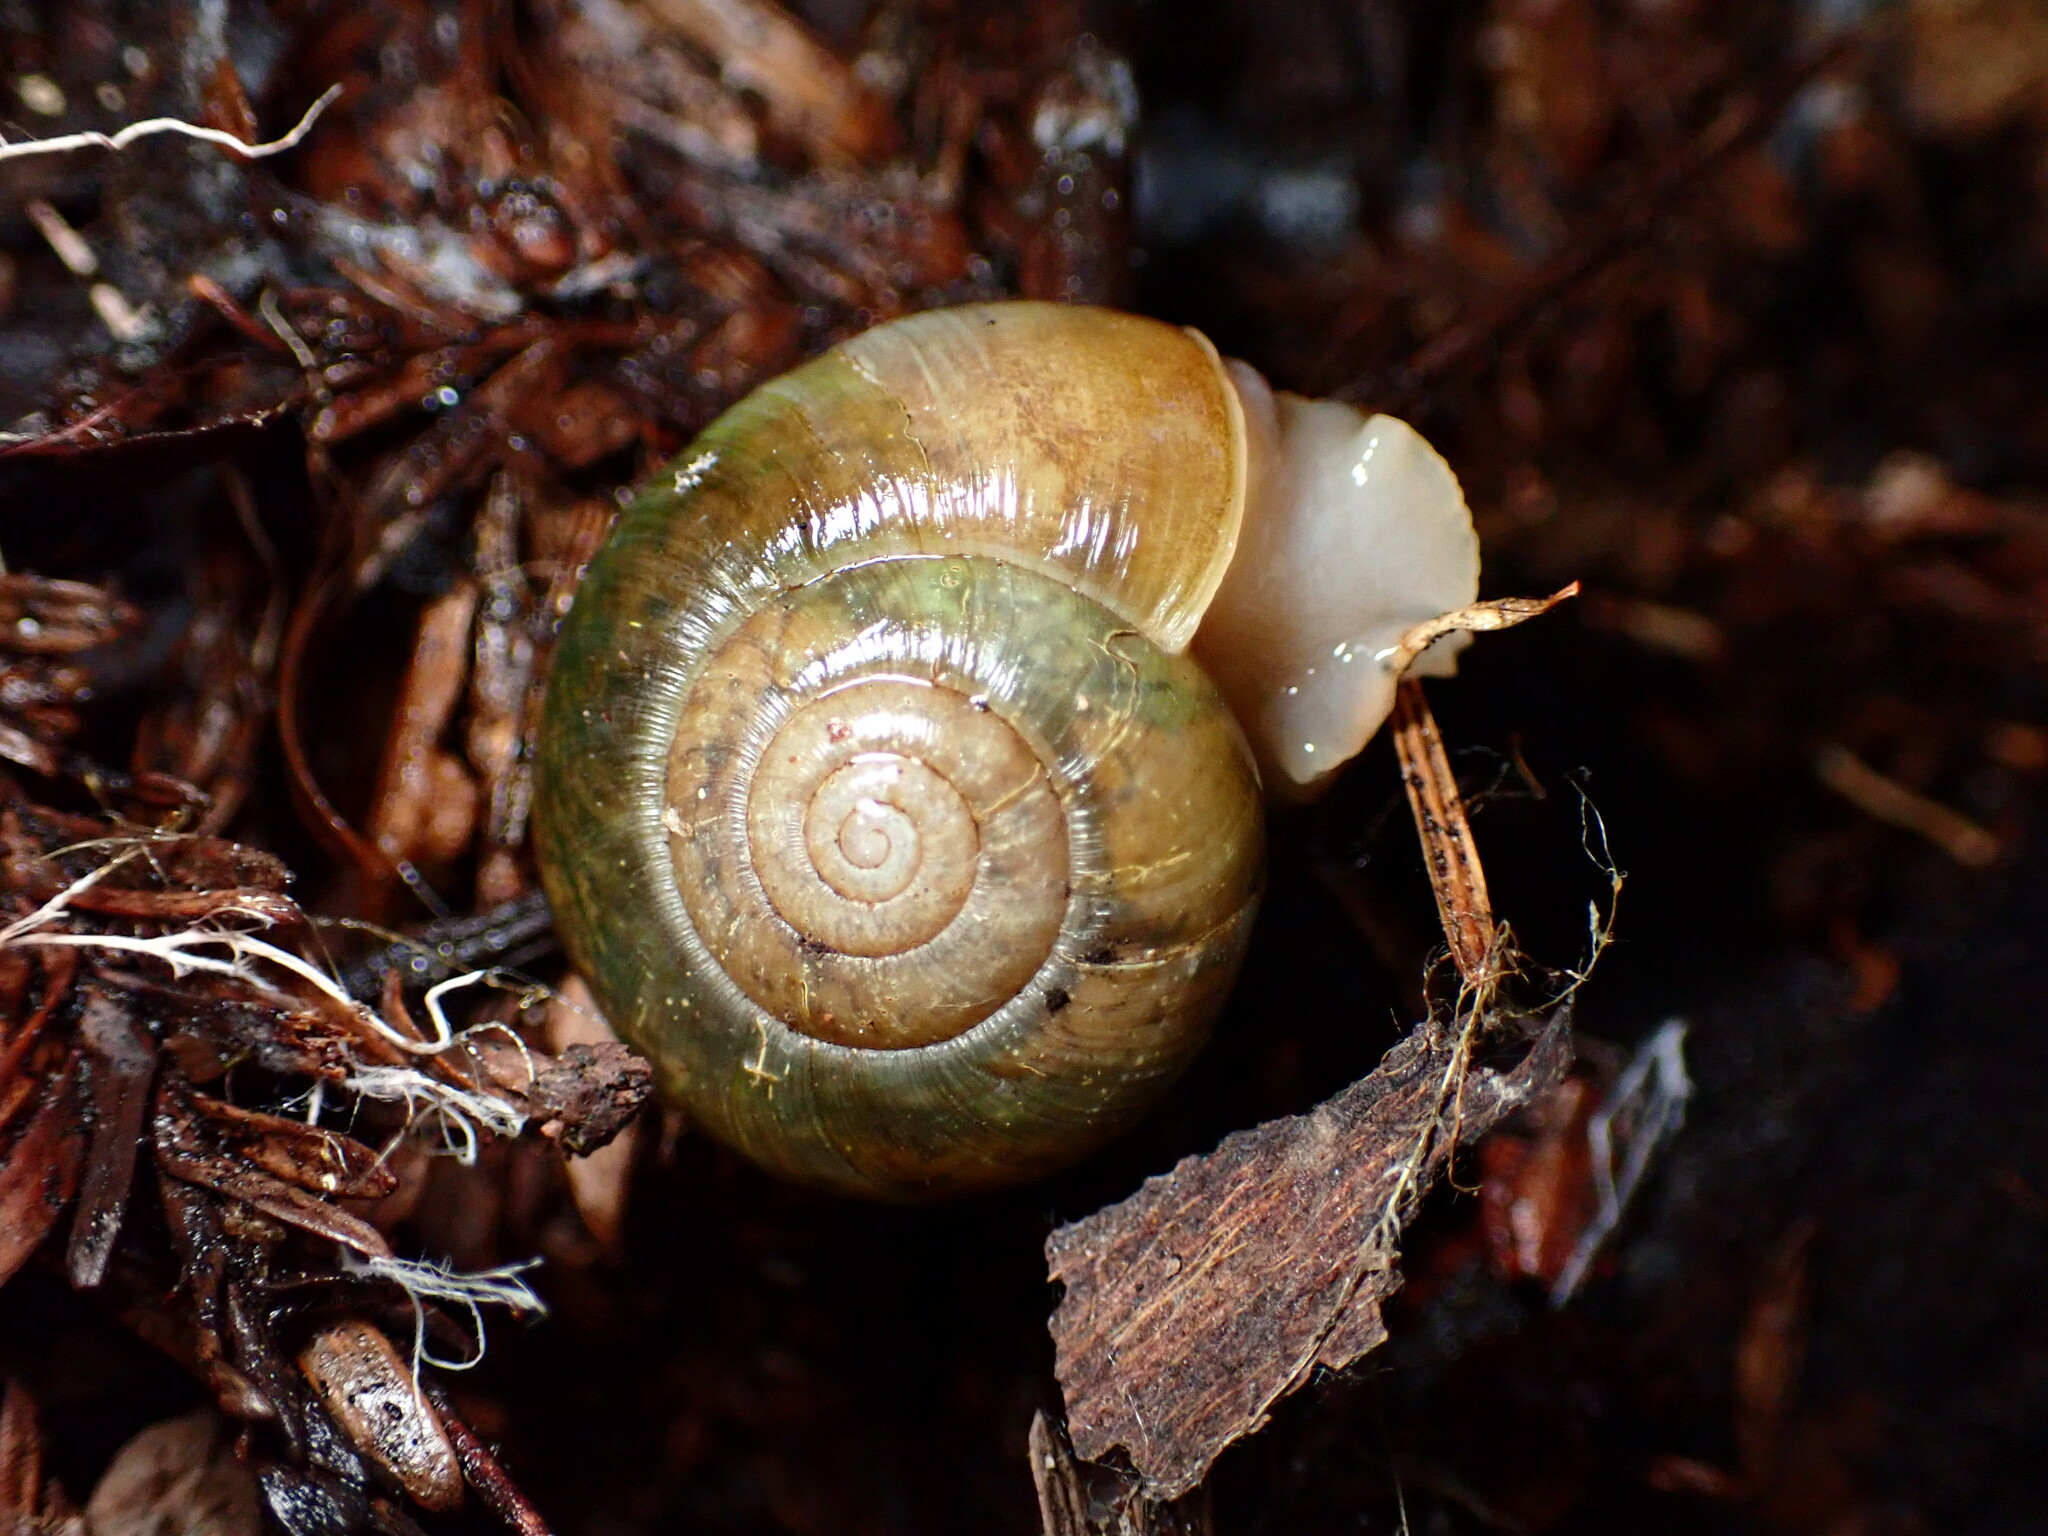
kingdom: Animalia
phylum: Mollusca
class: Gastropoda
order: Stylommatophora
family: Haplotrematidae
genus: Haplotrema
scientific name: Haplotrema minimum
